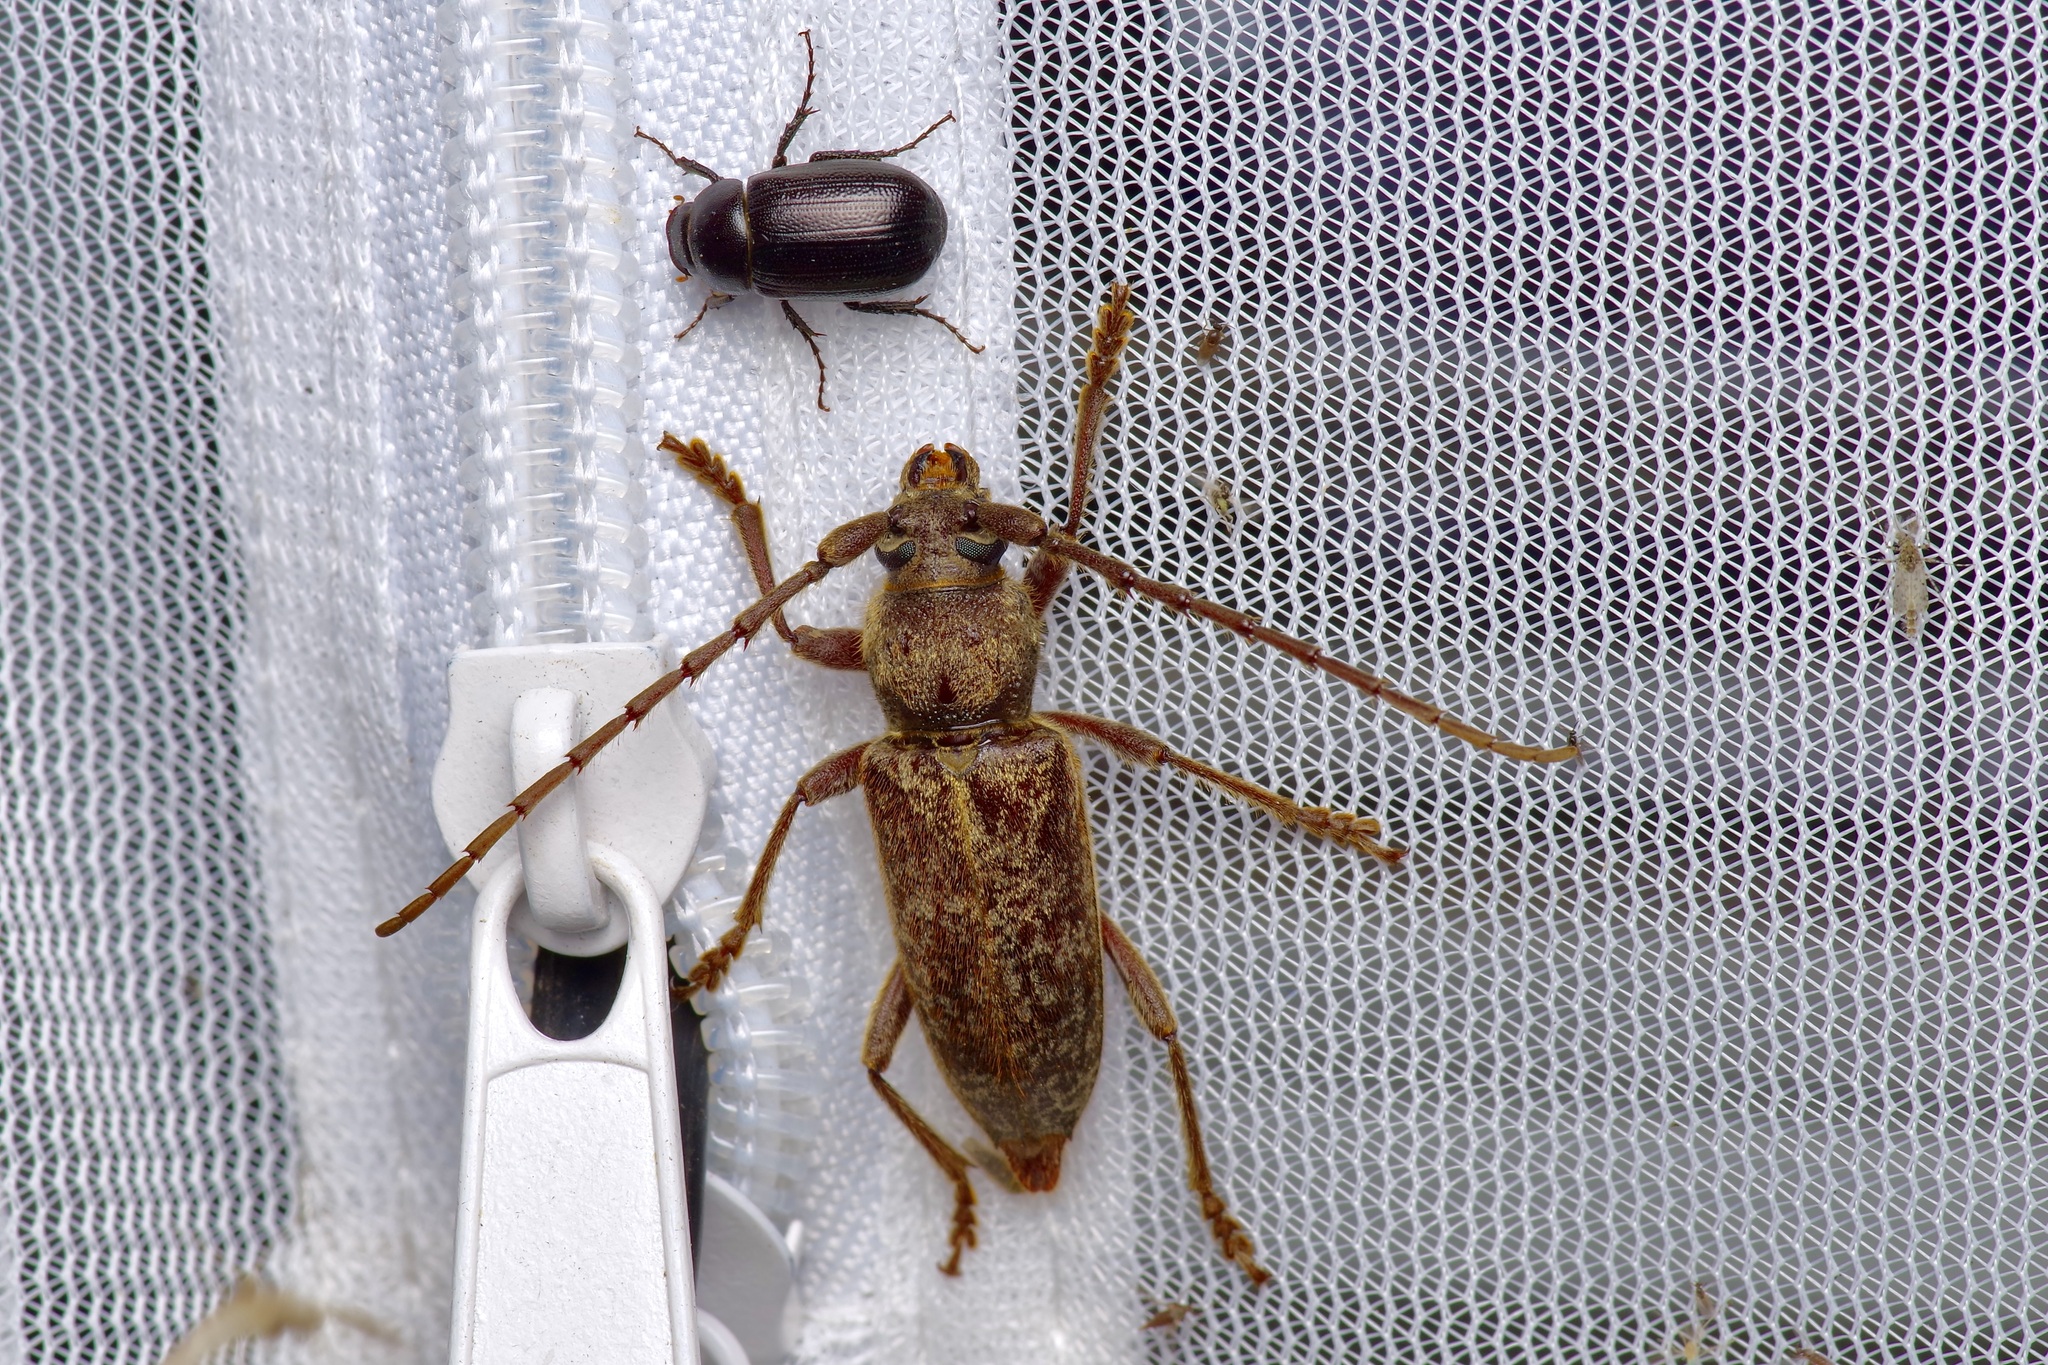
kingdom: Animalia
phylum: Arthropoda
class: Insecta
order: Coleoptera
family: Cerambycidae
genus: Enaphalodes
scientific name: Enaphalodes rufulus
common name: Red oak borer
